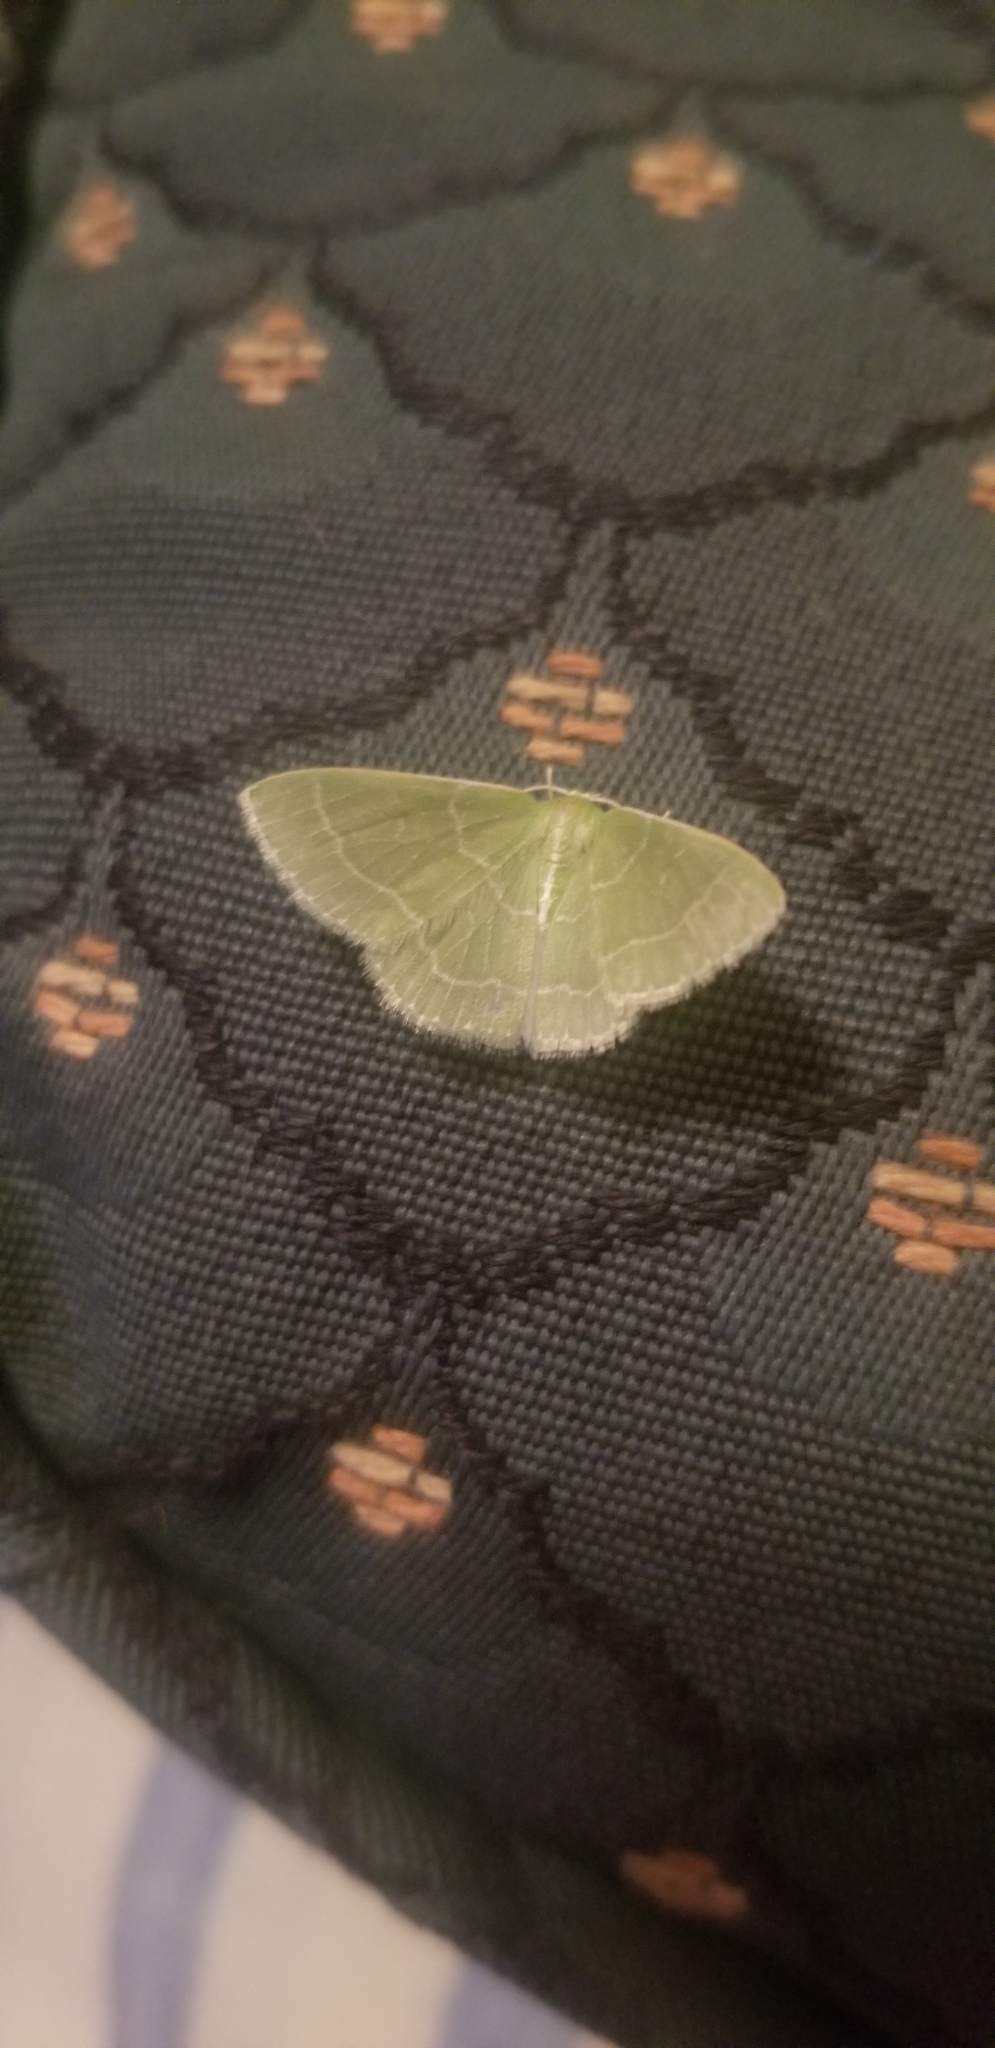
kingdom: Animalia
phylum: Arthropoda
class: Insecta
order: Lepidoptera
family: Geometridae
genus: Synchlora
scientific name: Synchlora aerata
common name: Wavy-lined emerald
